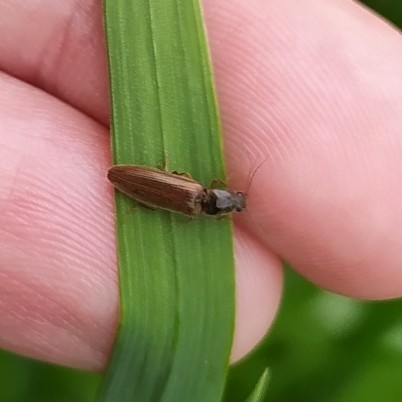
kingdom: Animalia
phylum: Arthropoda
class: Insecta
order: Coleoptera
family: Elateridae
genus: Athous
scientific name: Athous subfuscus
